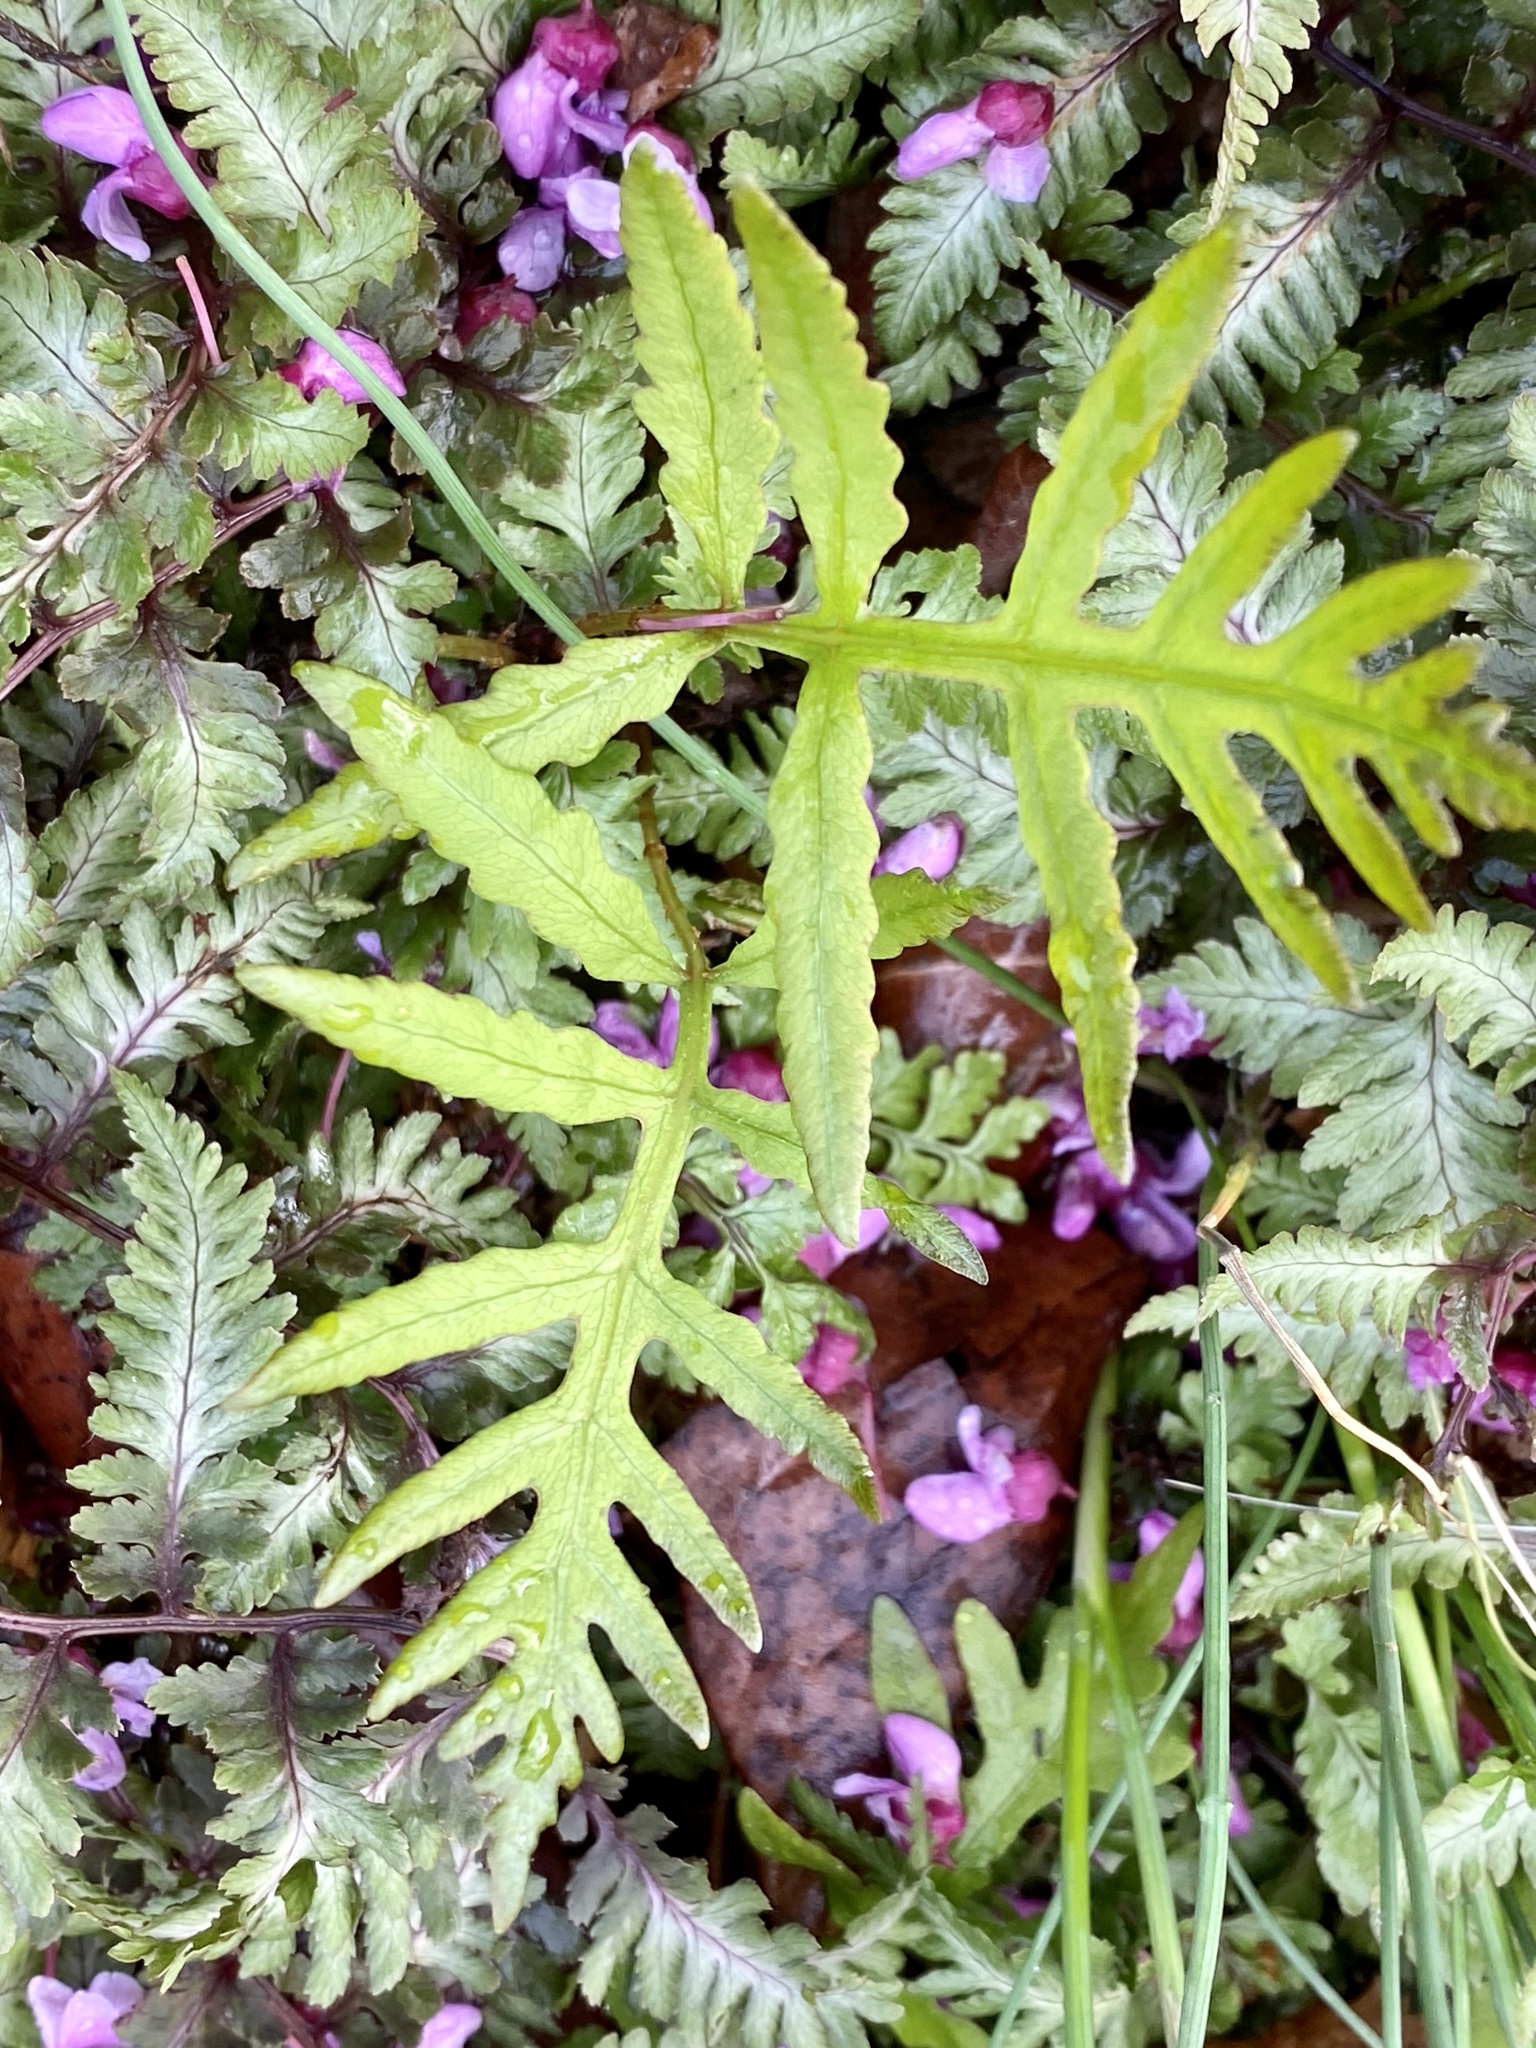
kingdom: Plantae
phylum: Tracheophyta
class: Polypodiopsida
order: Polypodiales
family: Onocleaceae
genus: Onoclea
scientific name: Onoclea sensibilis
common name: Sensitive fern
